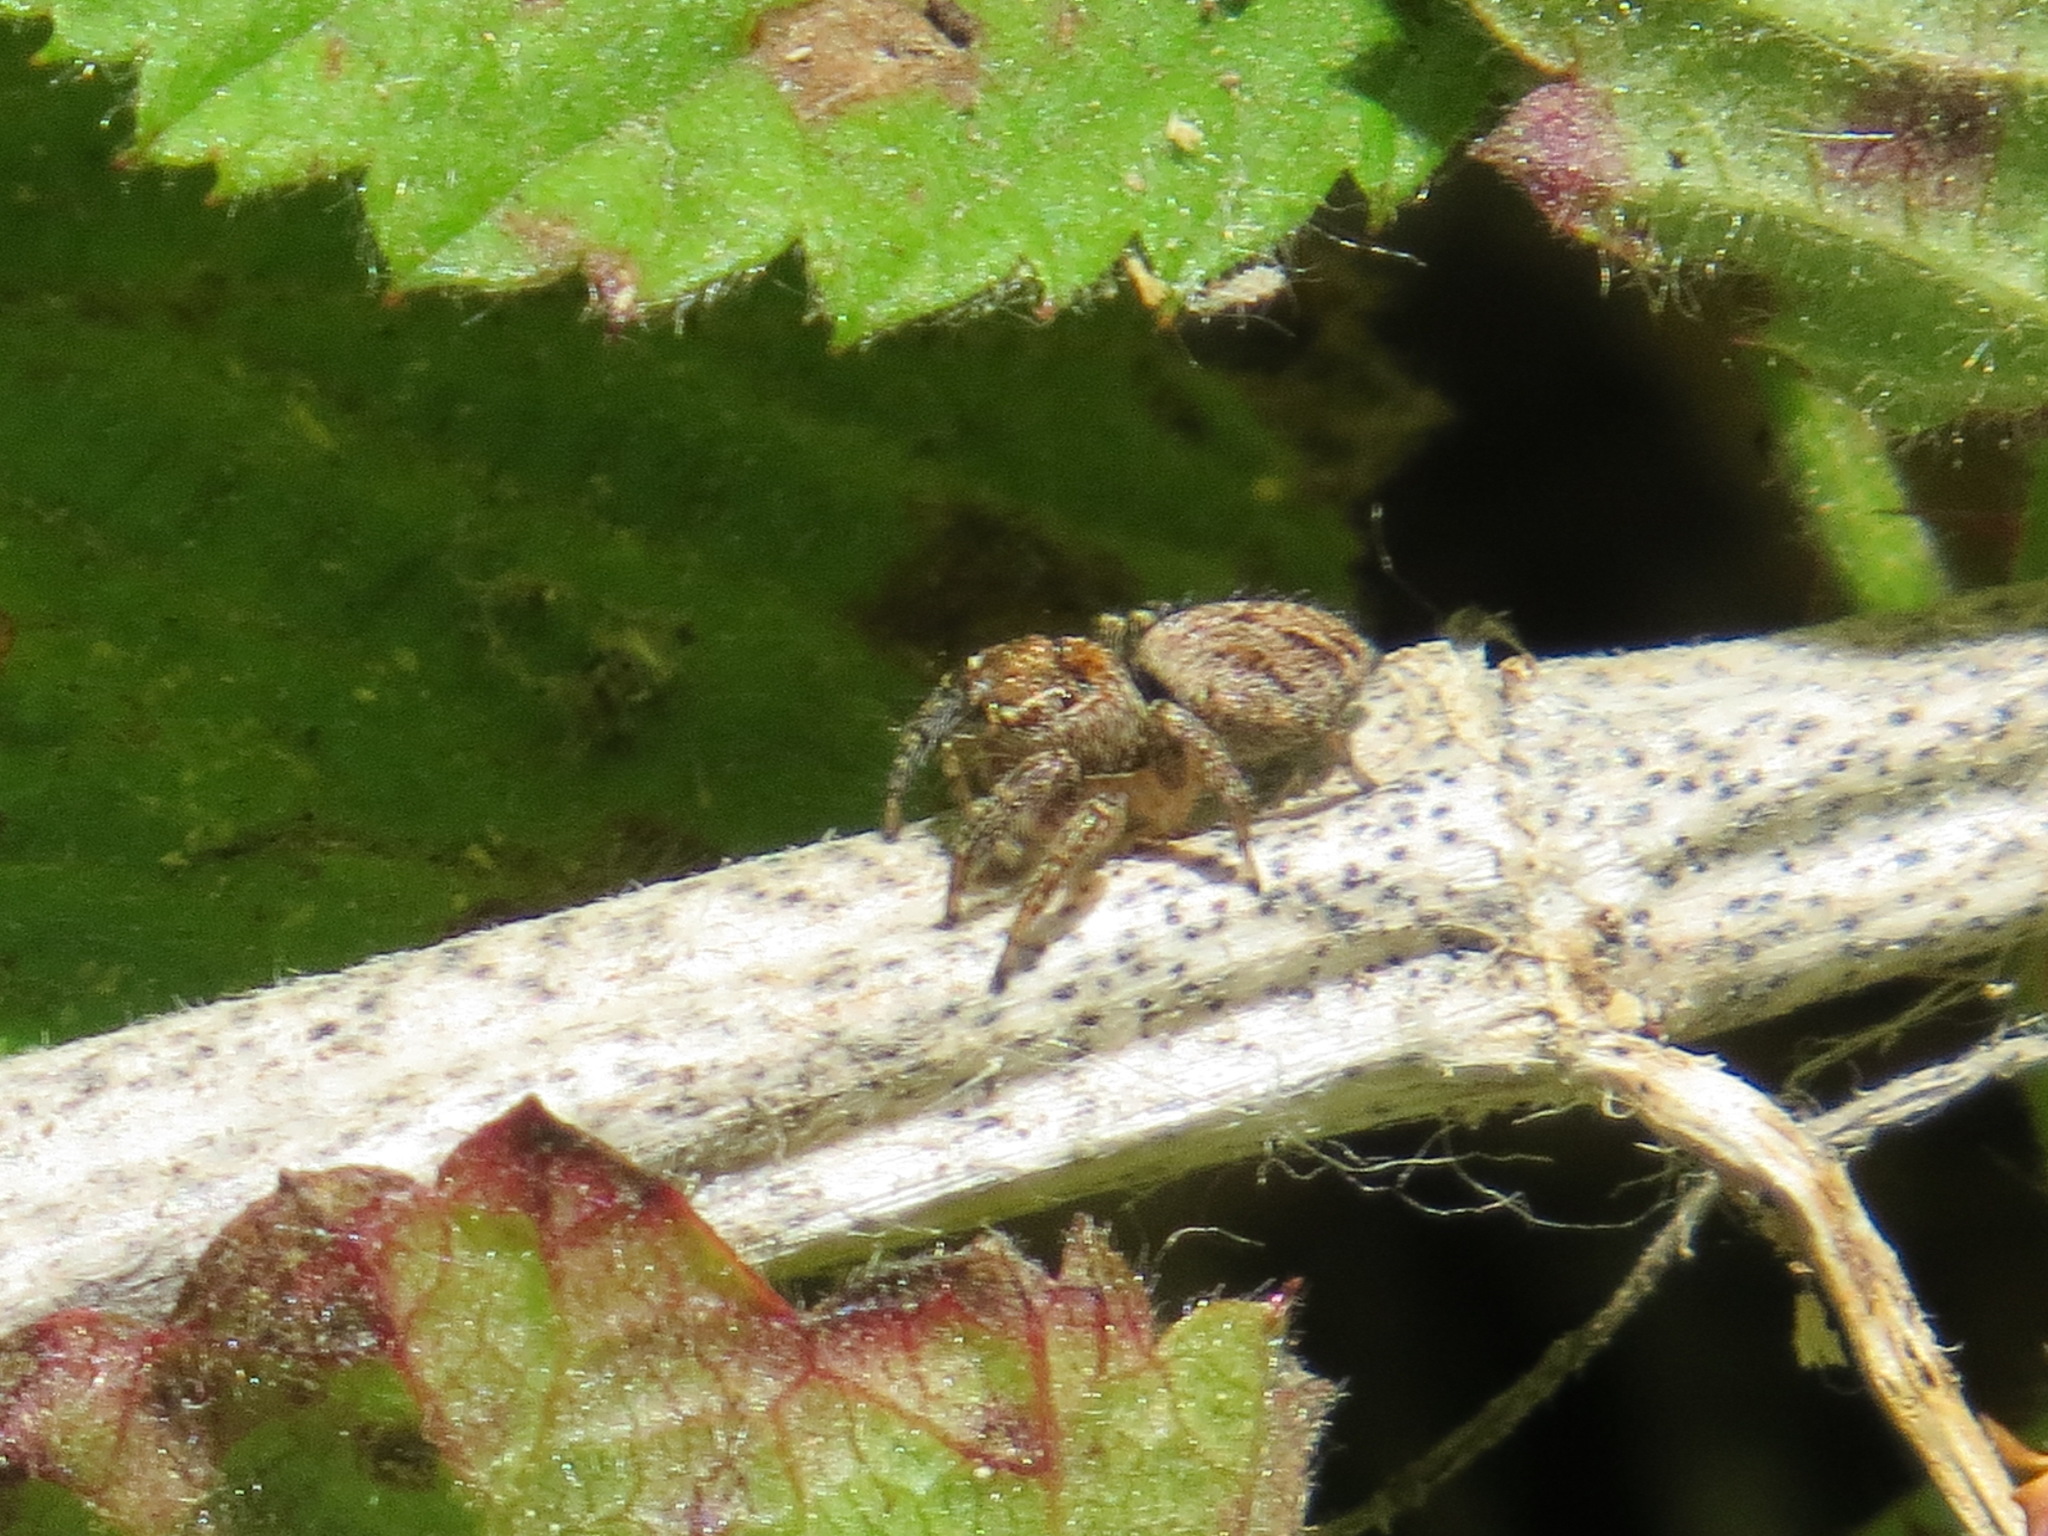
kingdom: Animalia
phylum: Arthropoda
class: Arachnida
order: Araneae
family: Salticidae
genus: Evarcha
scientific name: Evarcha proszynskii
